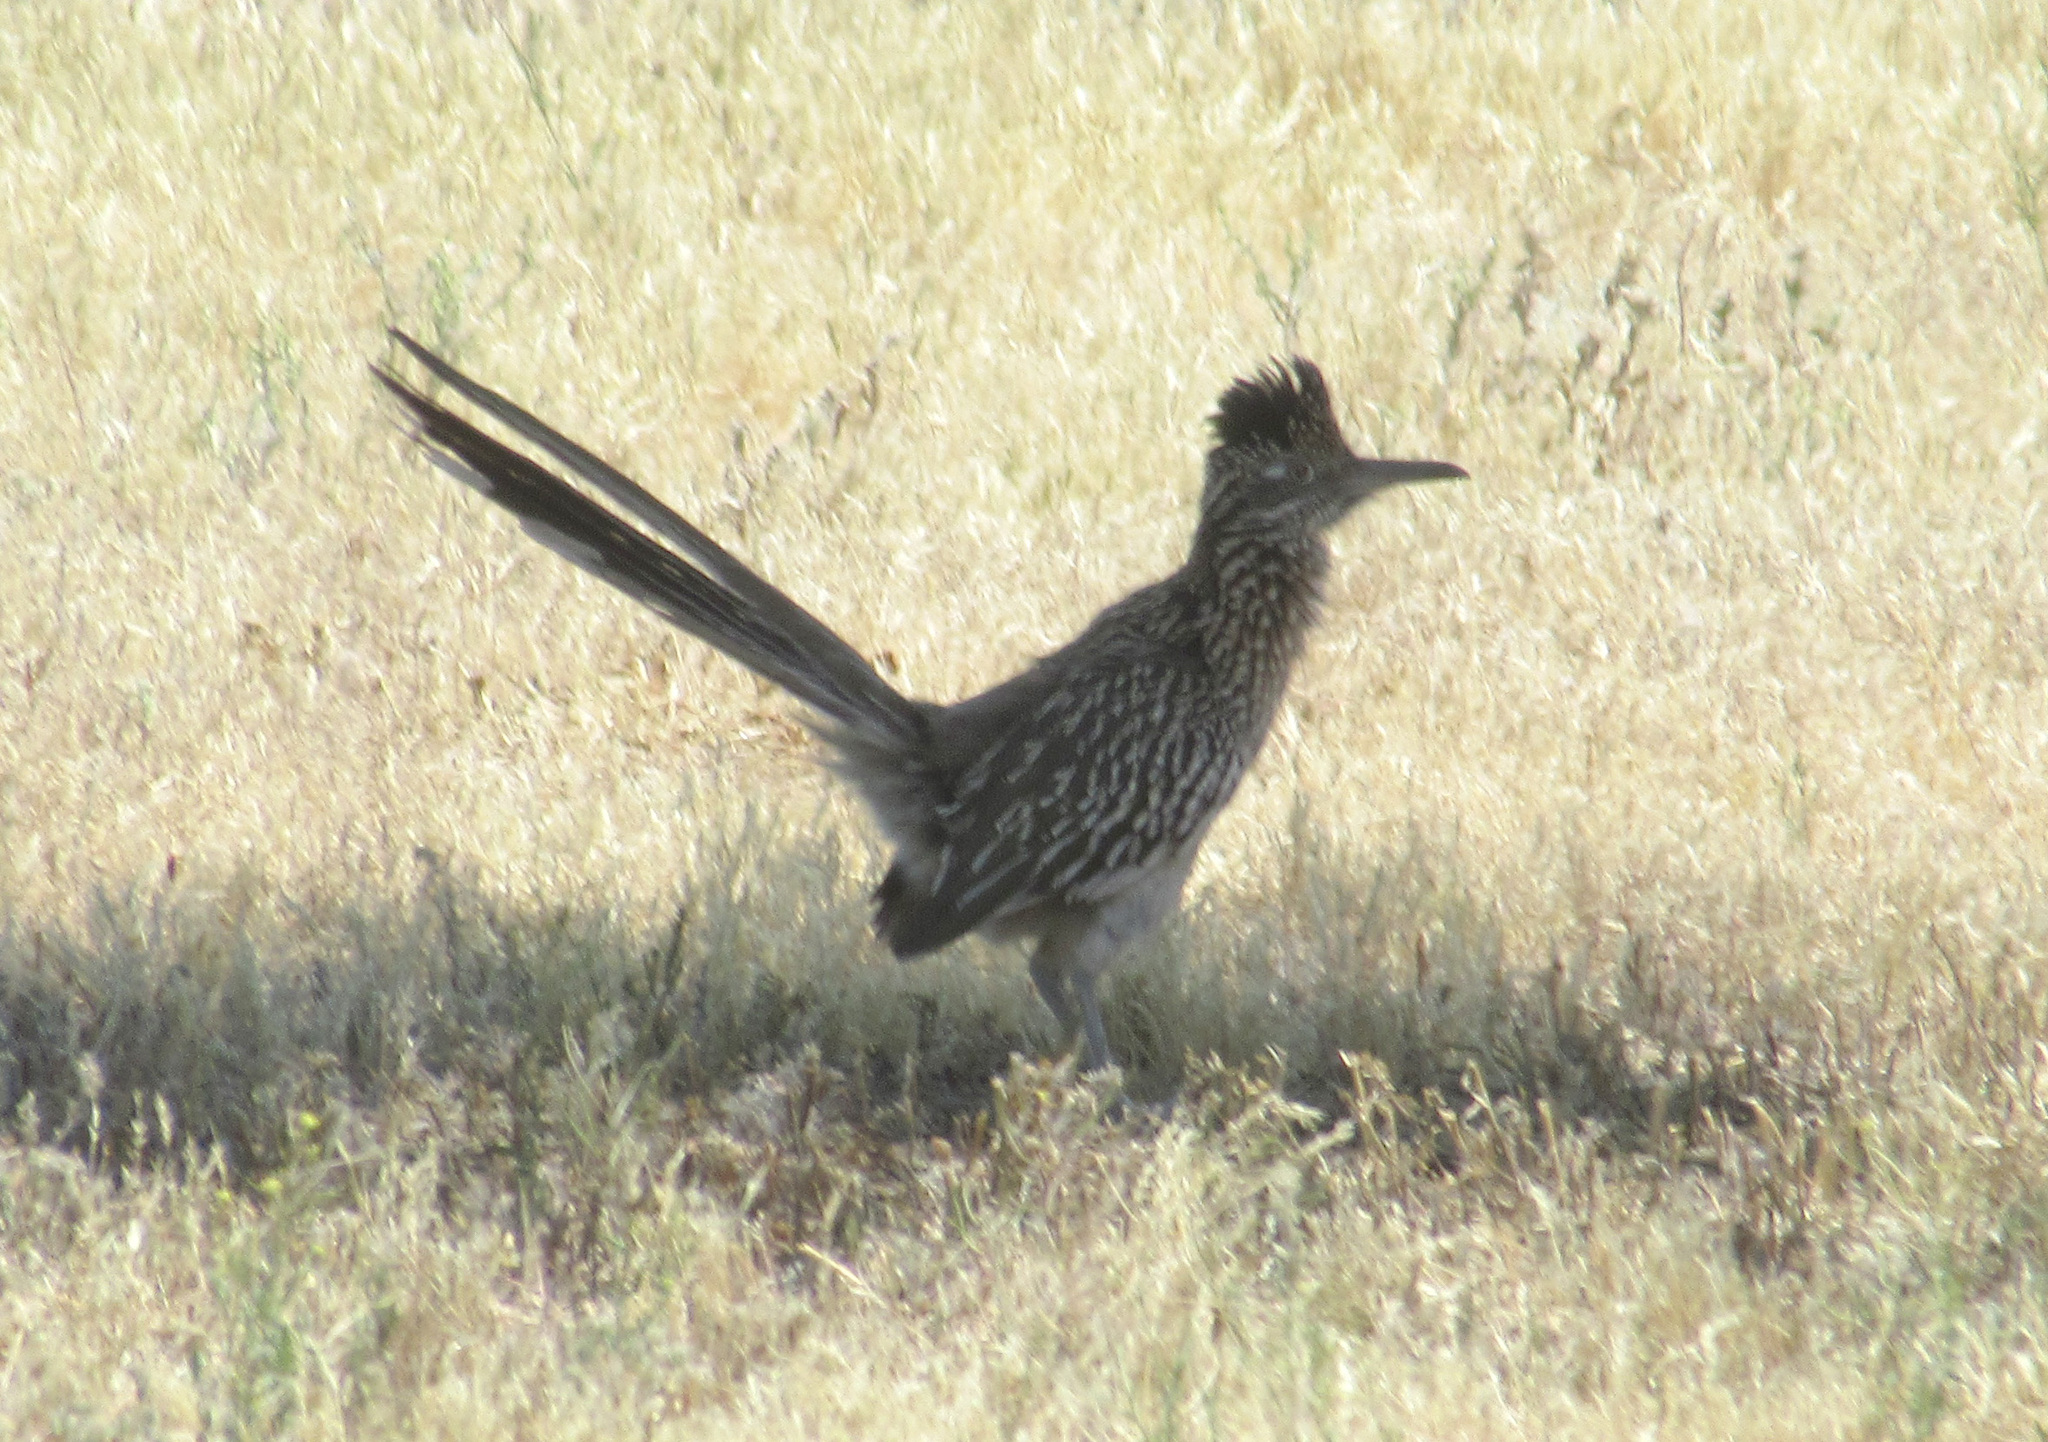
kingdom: Animalia
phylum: Chordata
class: Aves
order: Cuculiformes
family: Cuculidae
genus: Geococcyx
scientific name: Geococcyx californianus
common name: Greater roadrunner
